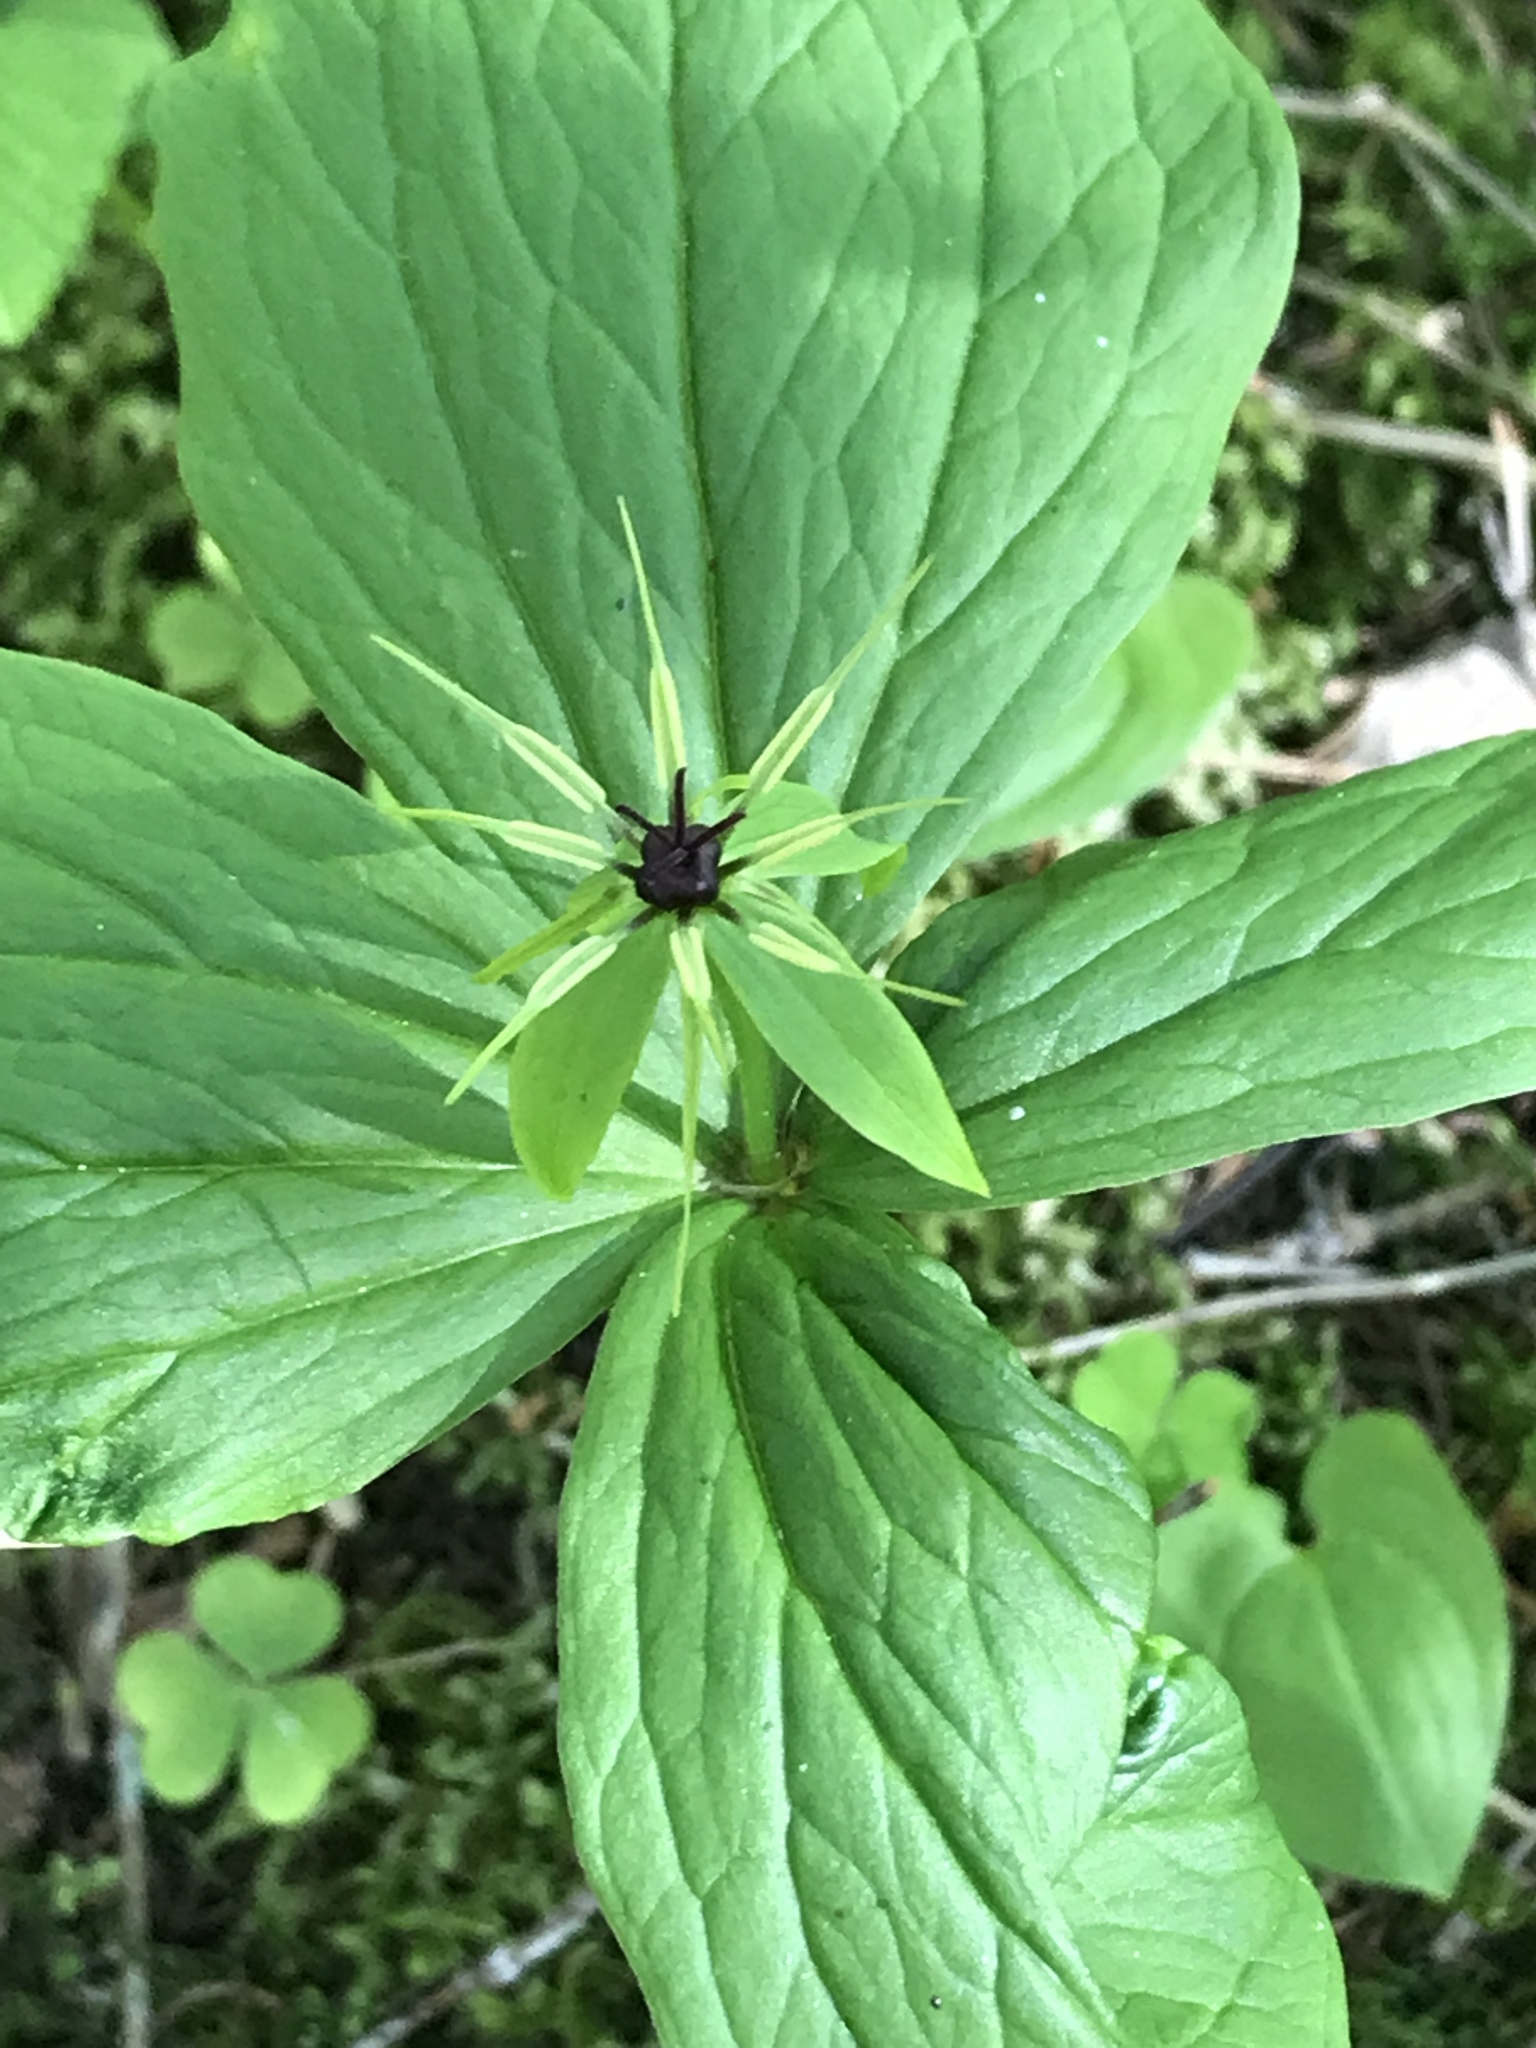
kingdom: Plantae
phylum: Tracheophyta
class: Liliopsida
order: Liliales
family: Melanthiaceae
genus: Paris
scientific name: Paris quadrifolia
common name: Herb-paris
